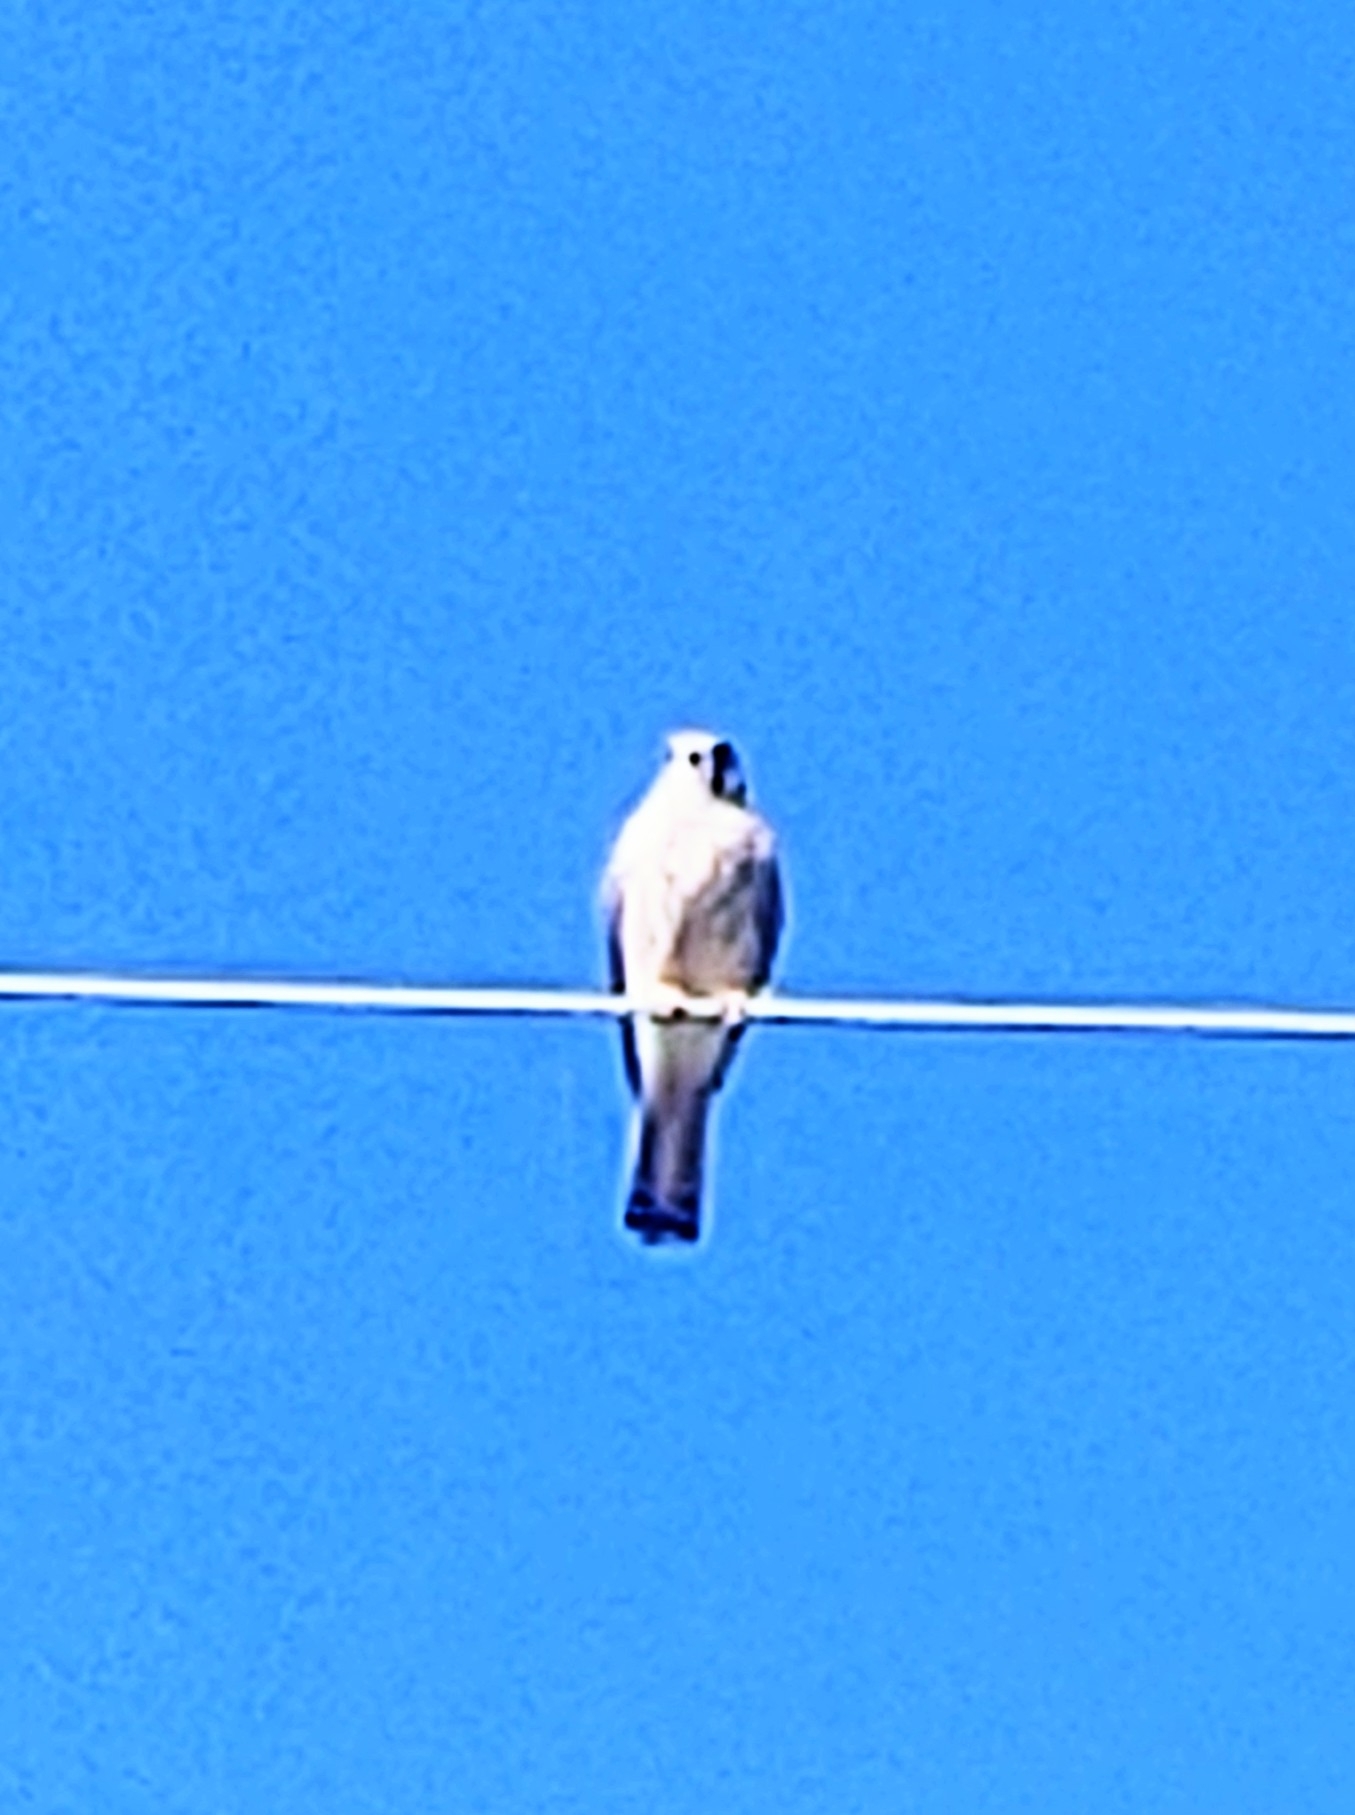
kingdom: Animalia
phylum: Chordata
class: Aves
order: Falconiformes
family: Falconidae
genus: Falco
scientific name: Falco sparverius
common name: American kestrel
